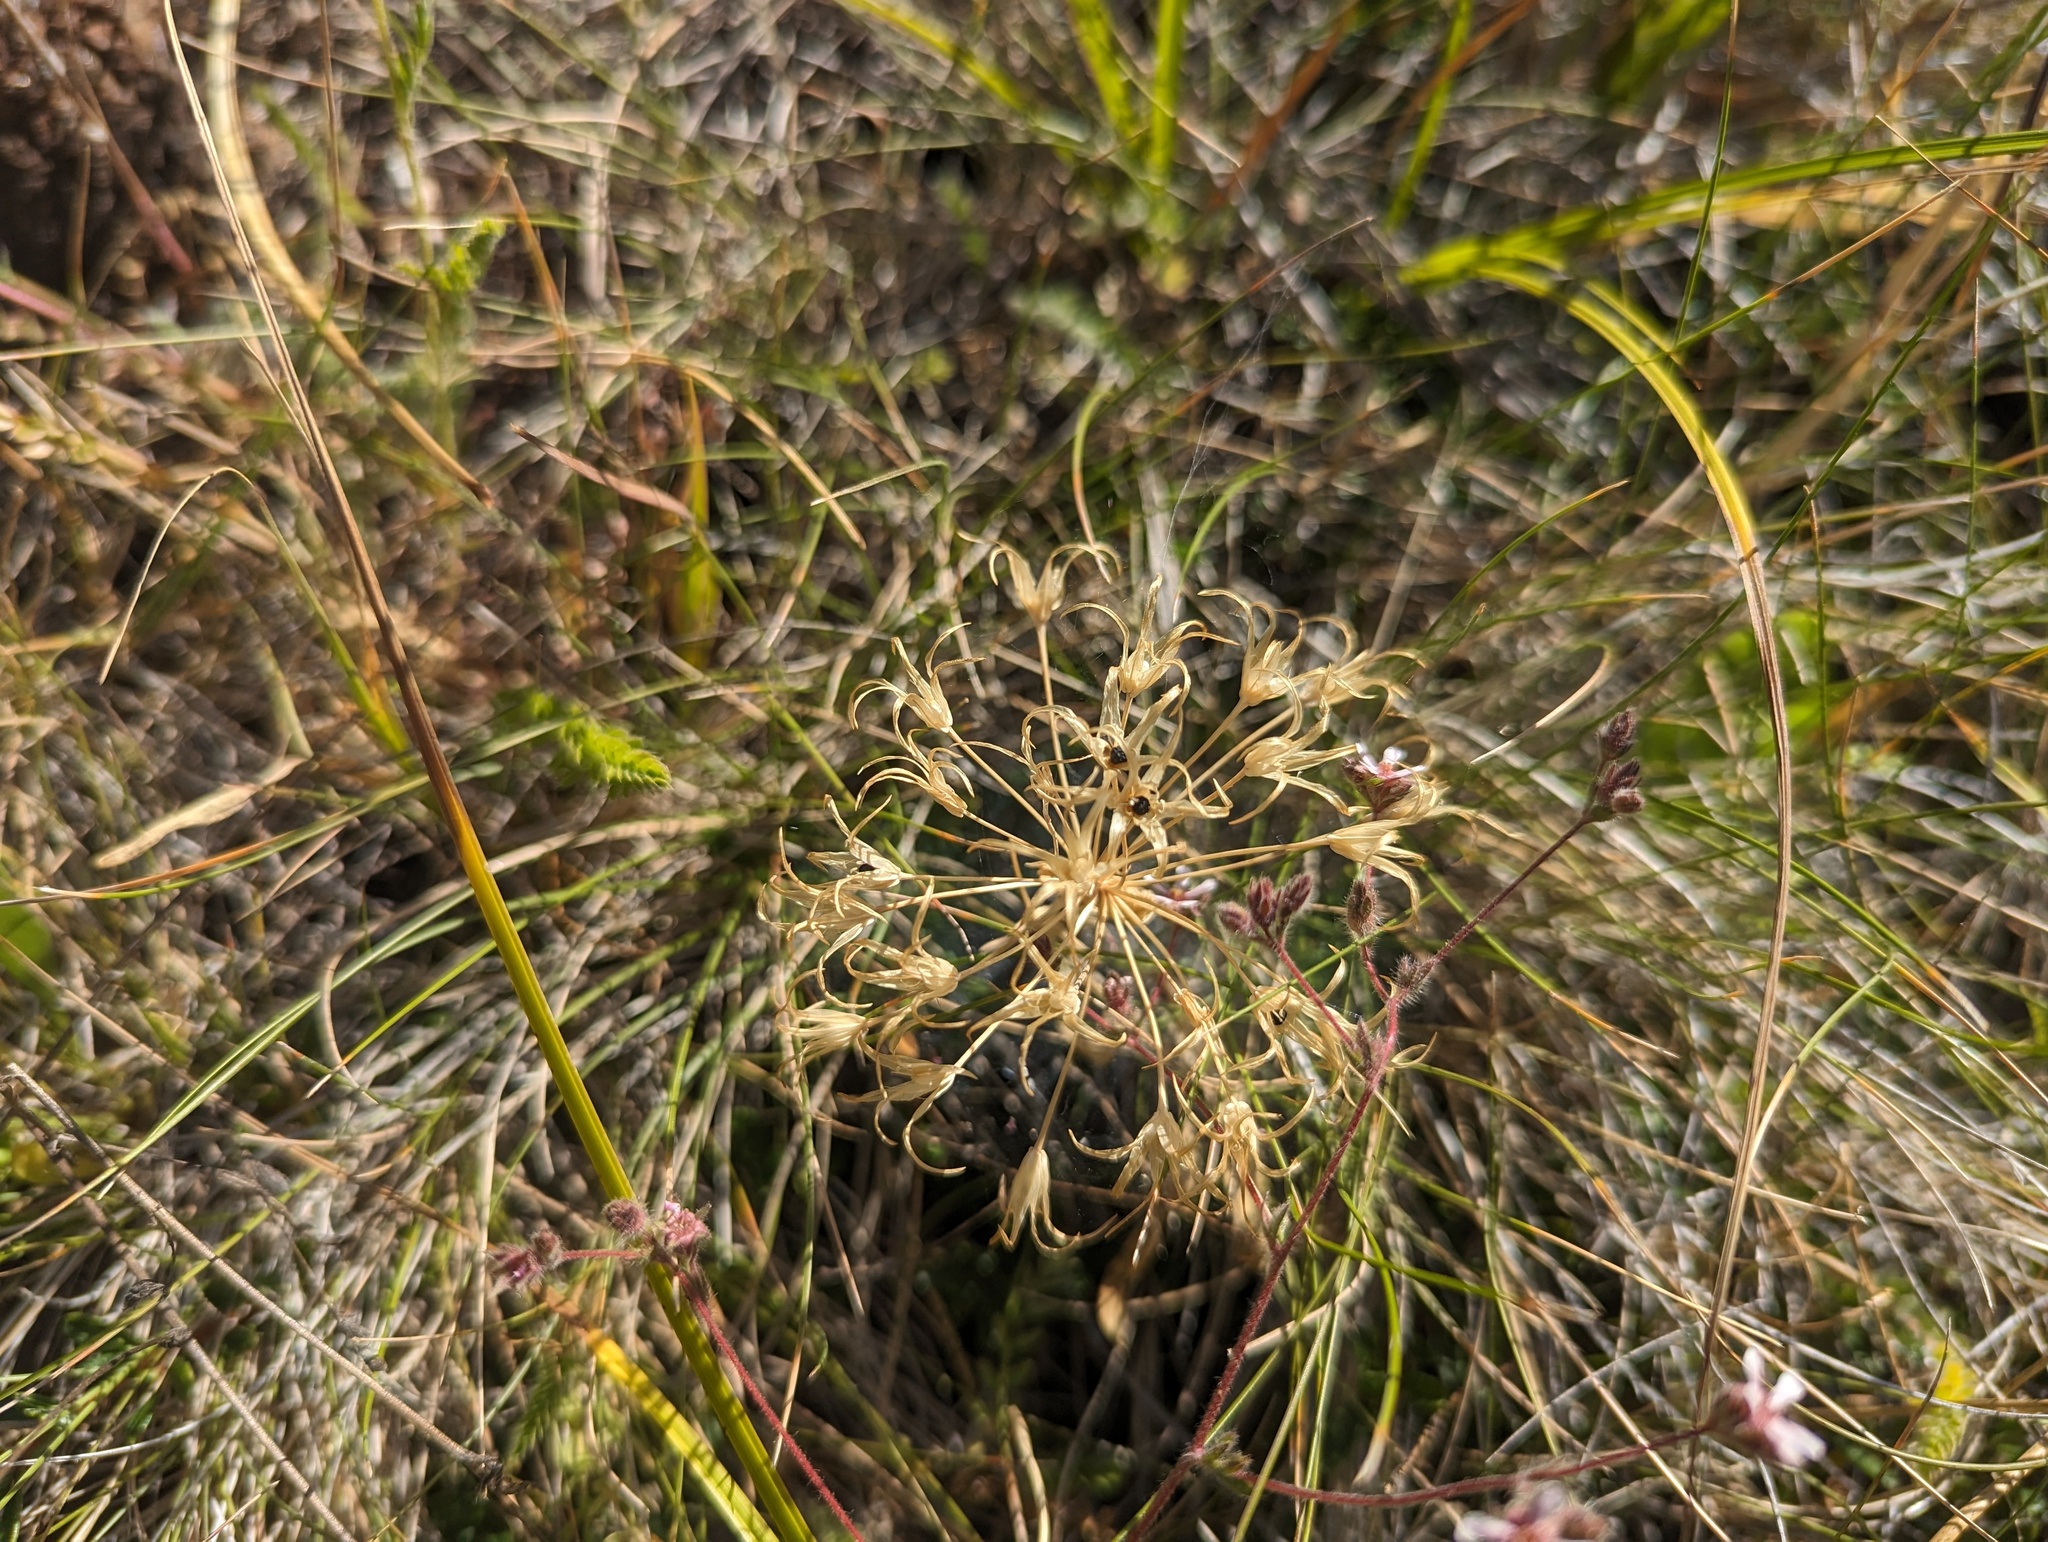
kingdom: Plantae
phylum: Tracheophyta
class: Liliopsida
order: Asparagales
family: Amaryllidaceae
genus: Allium
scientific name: Allium falcifolium
